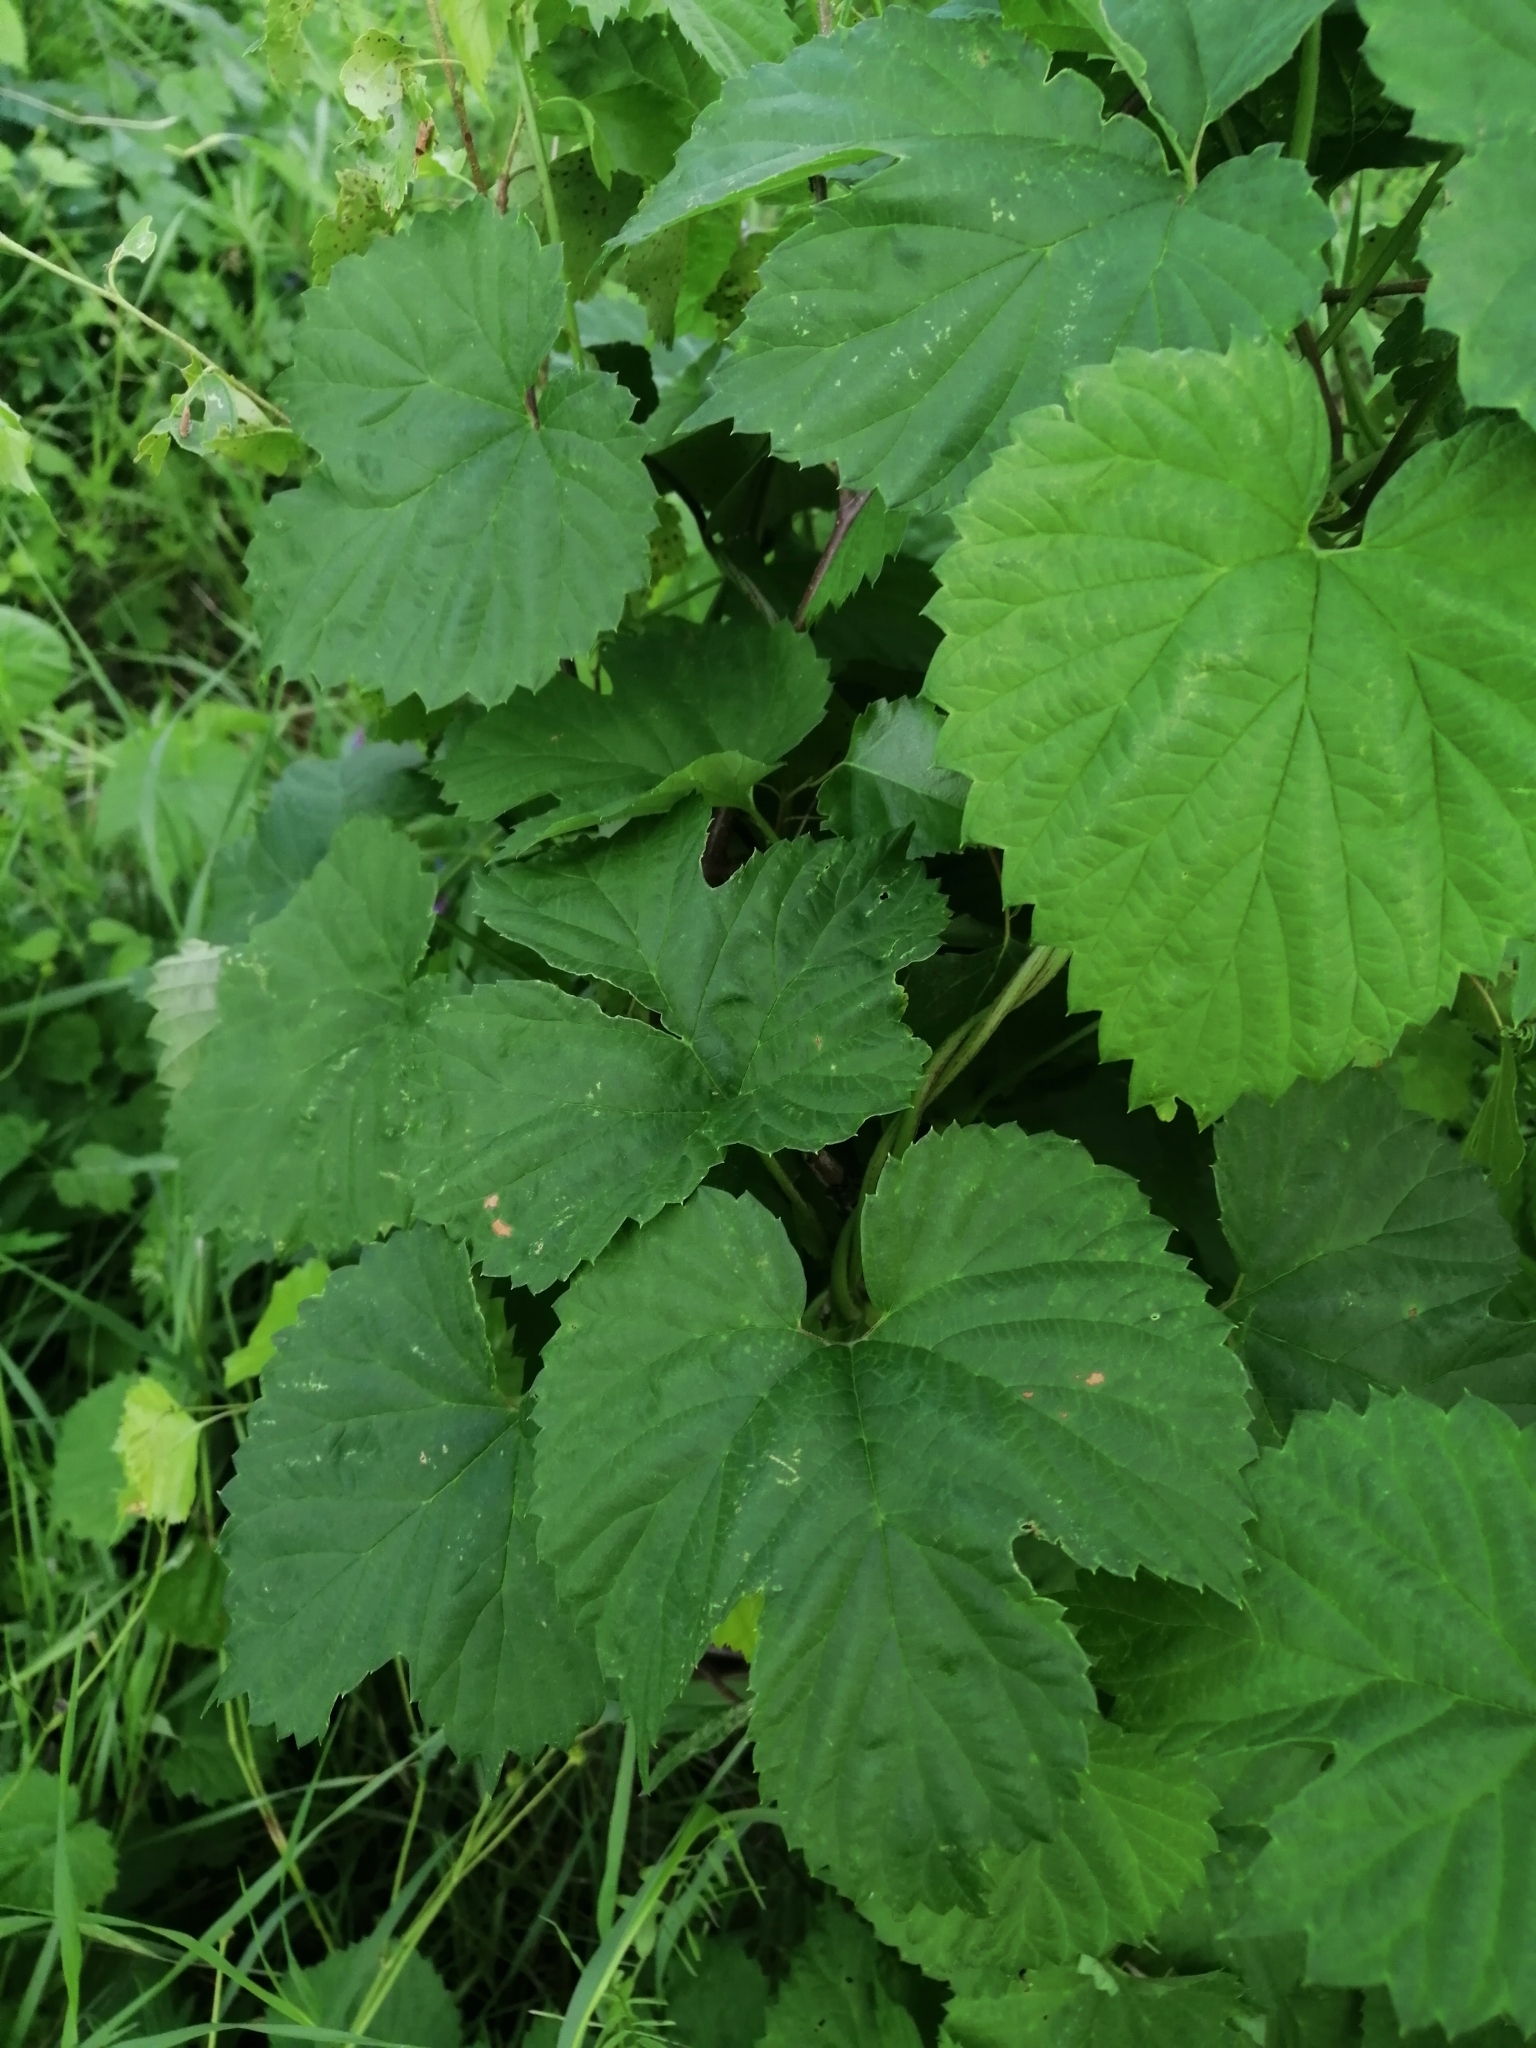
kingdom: Plantae
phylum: Tracheophyta
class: Magnoliopsida
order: Rosales
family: Cannabaceae
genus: Humulus
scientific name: Humulus lupulus
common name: Hop
